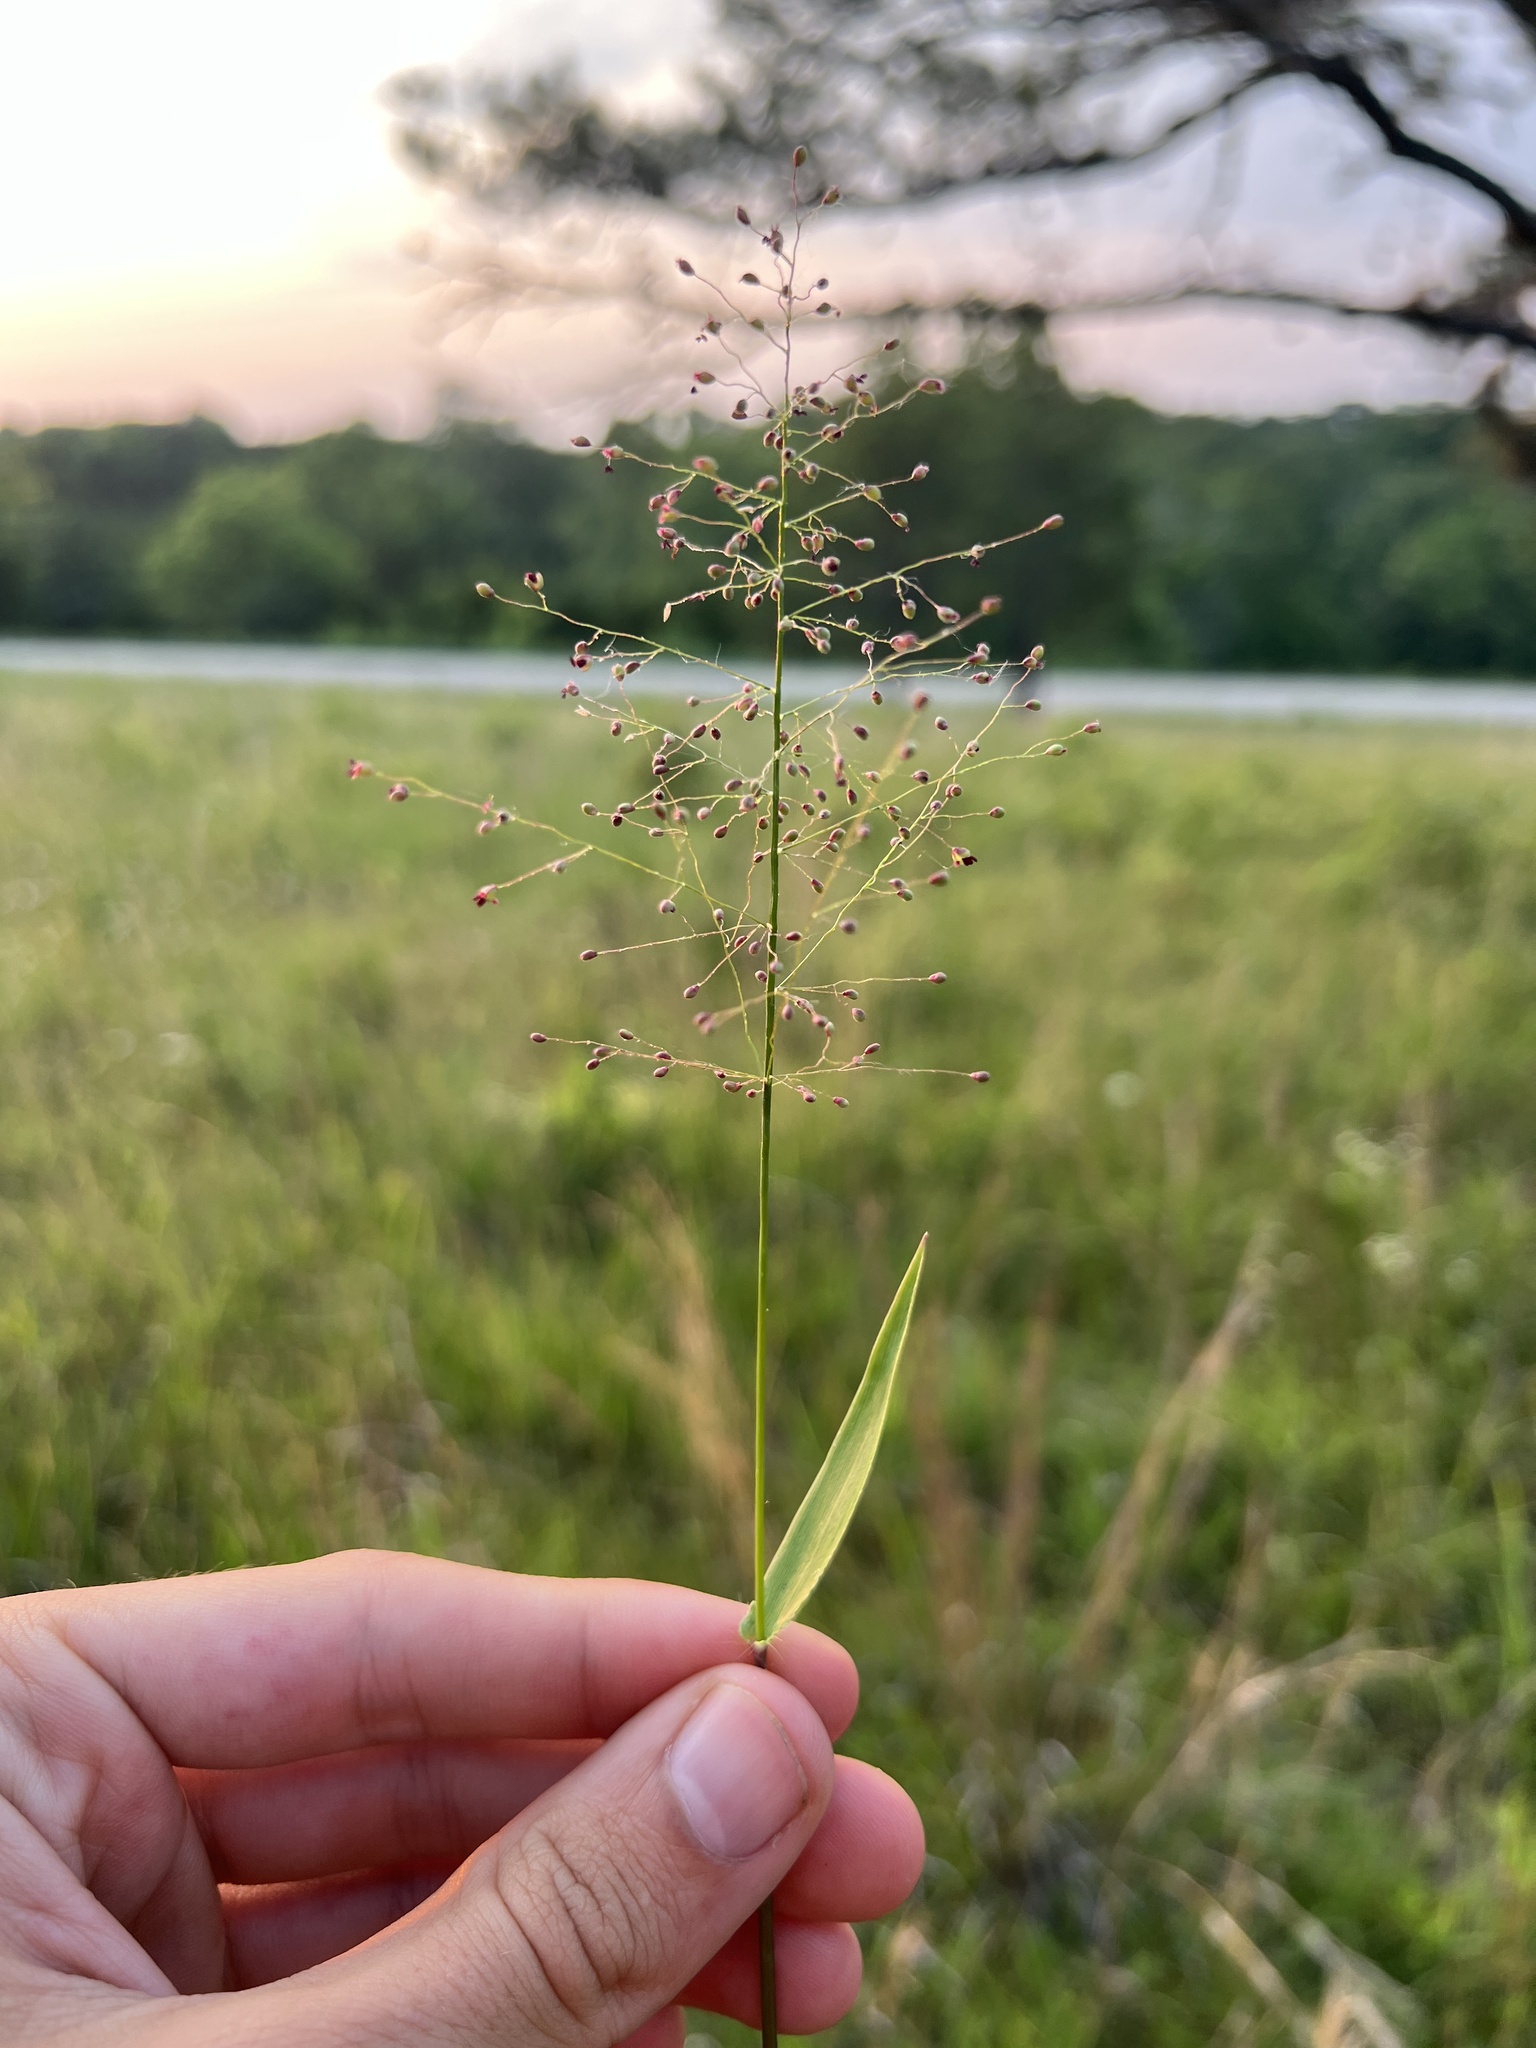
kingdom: Plantae
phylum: Tracheophyta
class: Liliopsida
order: Poales
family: Poaceae
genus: Dichanthelium
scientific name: Dichanthelium sphaerocarpon
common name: Round-fruited panicgrass
